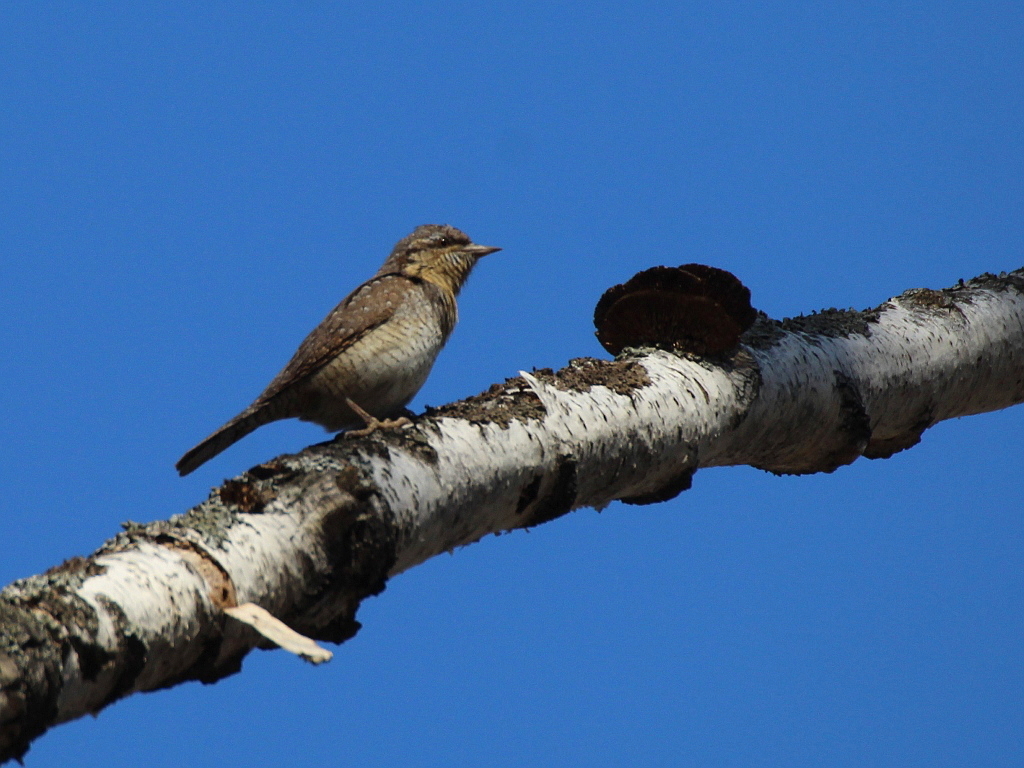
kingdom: Animalia
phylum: Chordata
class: Aves
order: Piciformes
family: Picidae
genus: Jynx
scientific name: Jynx torquilla
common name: Eurasian wryneck
